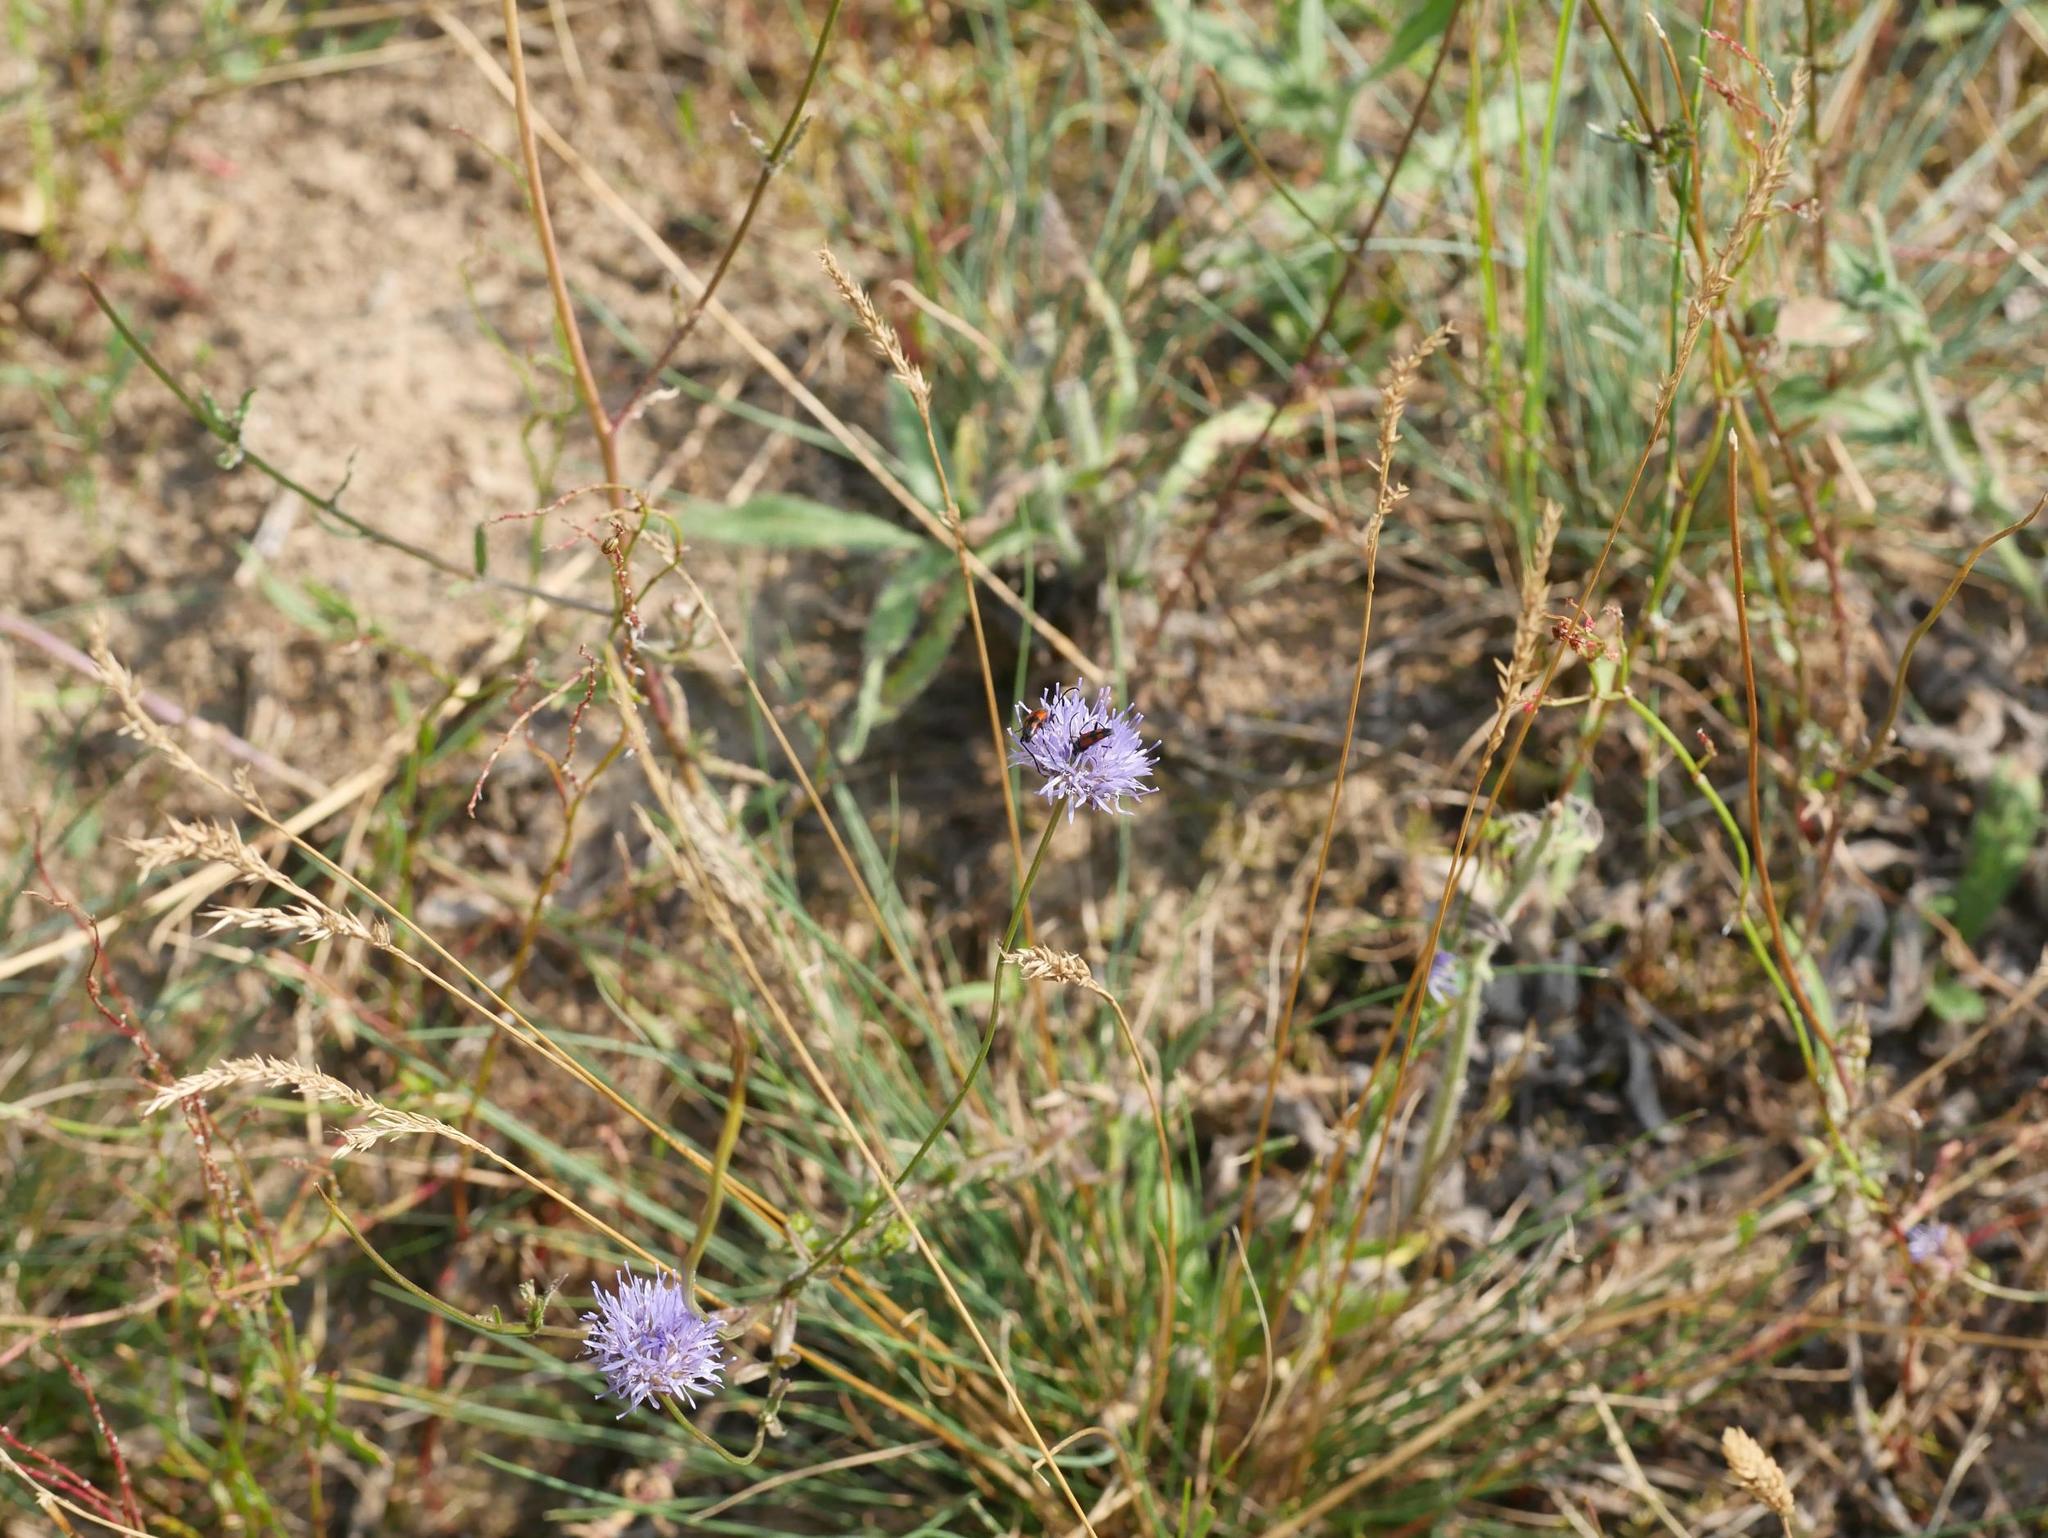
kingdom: Plantae
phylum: Tracheophyta
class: Magnoliopsida
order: Asterales
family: Campanulaceae
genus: Jasione
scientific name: Jasione montana
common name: Sheep's-bit
